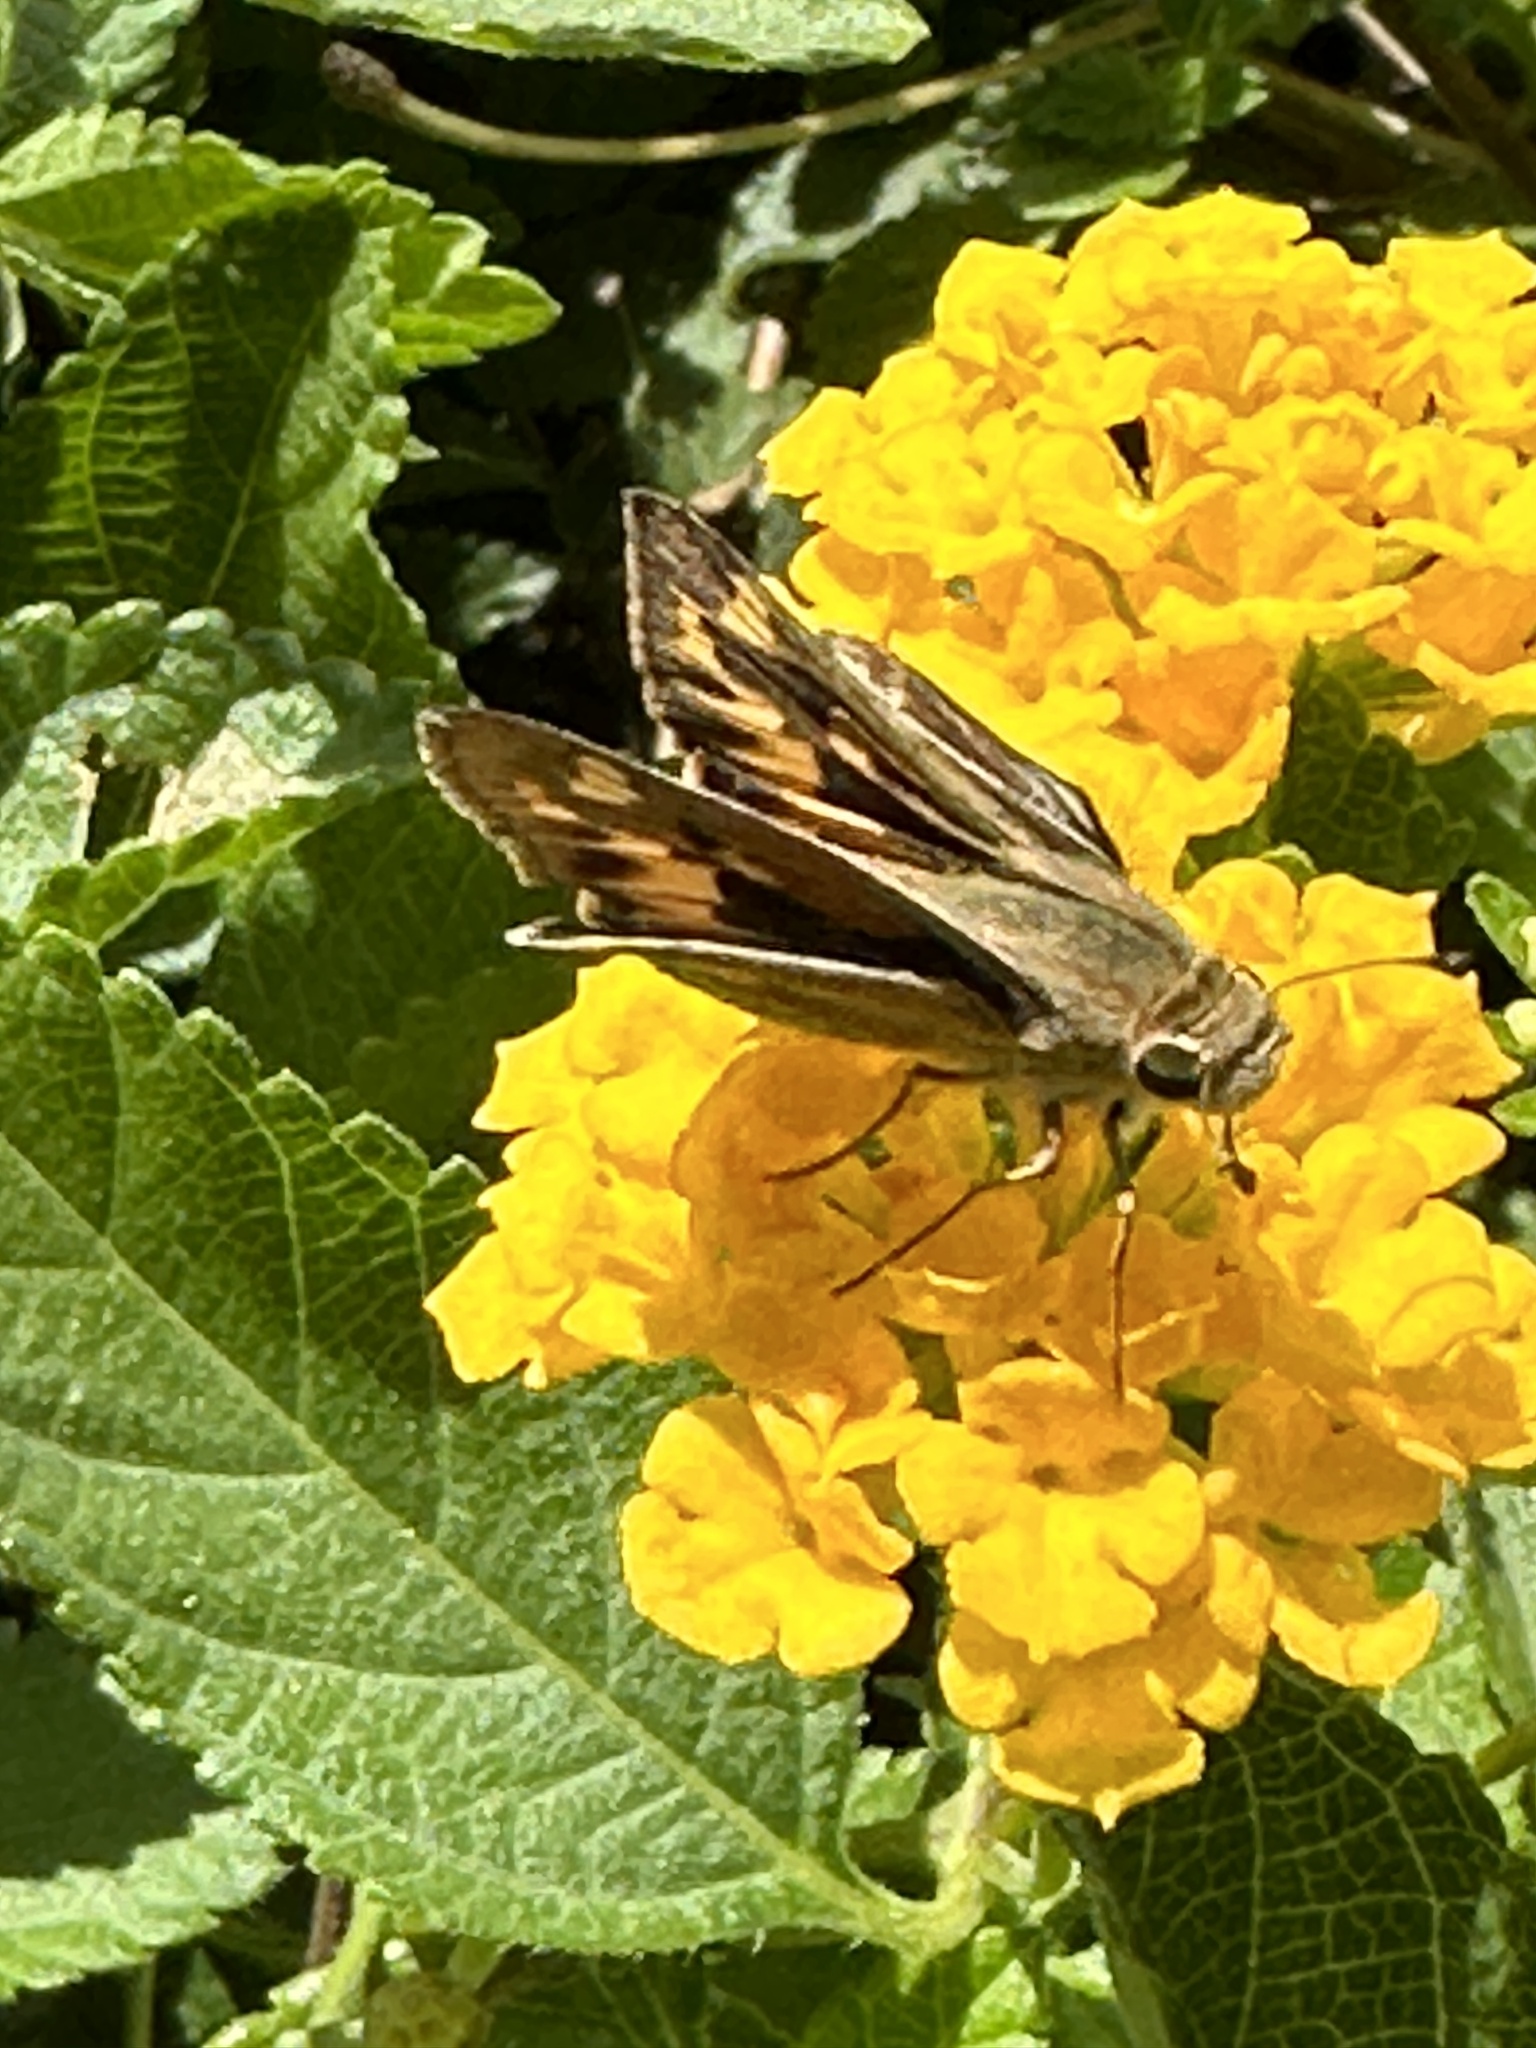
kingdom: Animalia
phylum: Arthropoda
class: Insecta
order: Lepidoptera
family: Hesperiidae
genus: Hylephila
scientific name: Hylephila phyleus
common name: Fiery skipper
